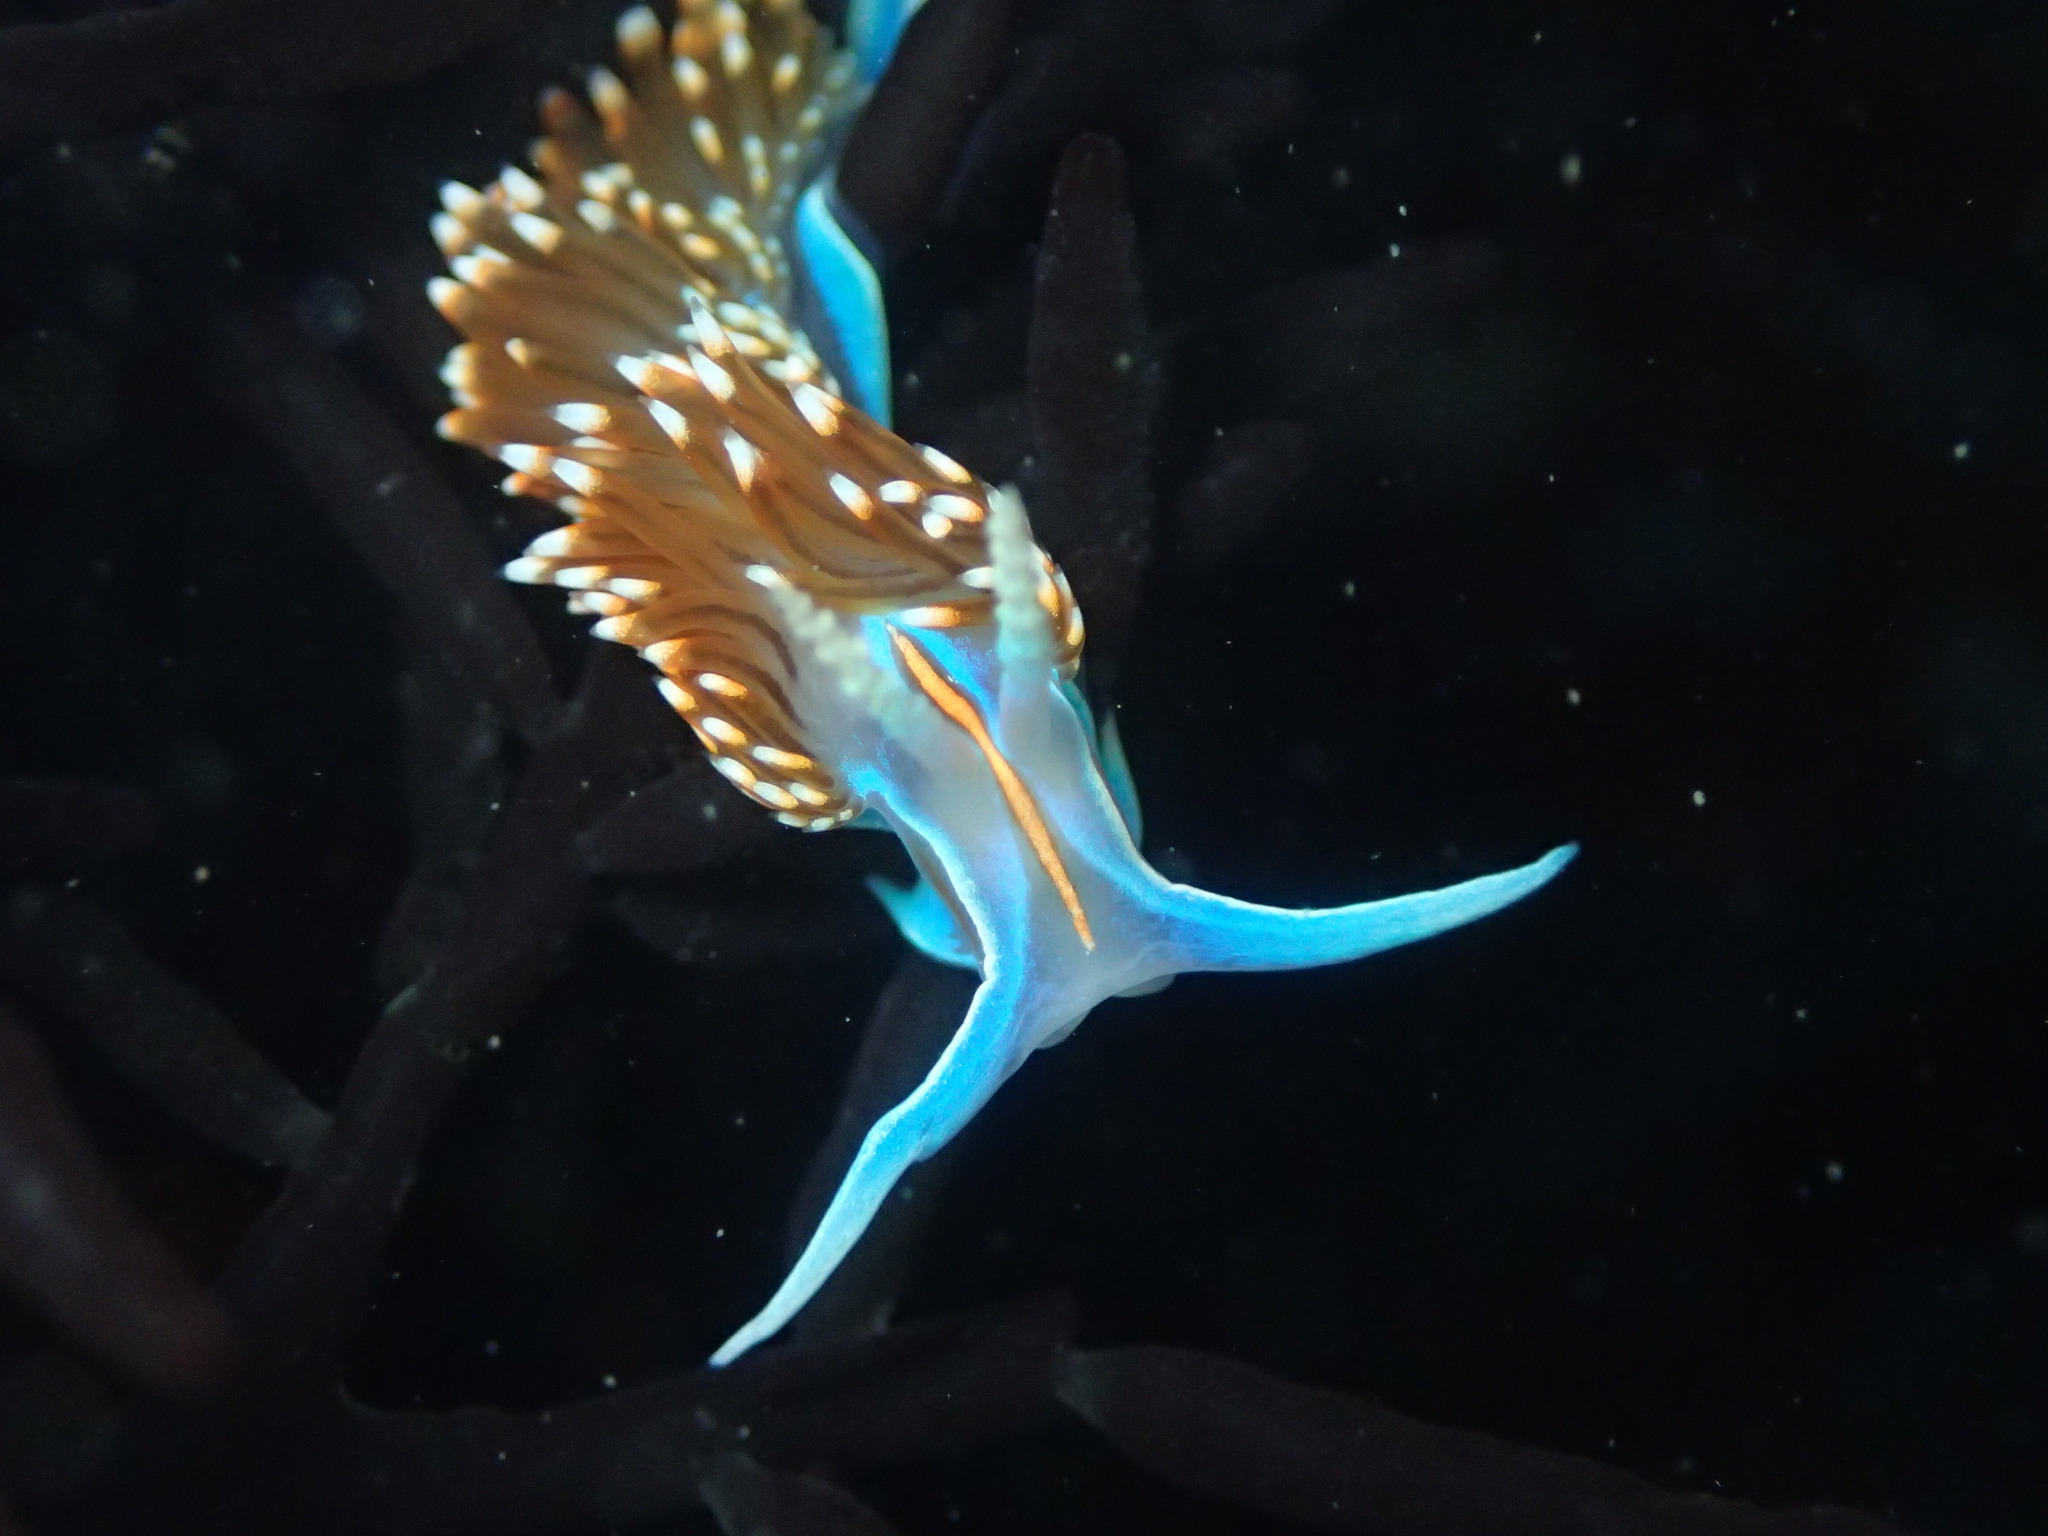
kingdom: Animalia
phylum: Mollusca
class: Gastropoda
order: Nudibranchia
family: Myrrhinidae
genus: Hermissenda
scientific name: Hermissenda opalescens
